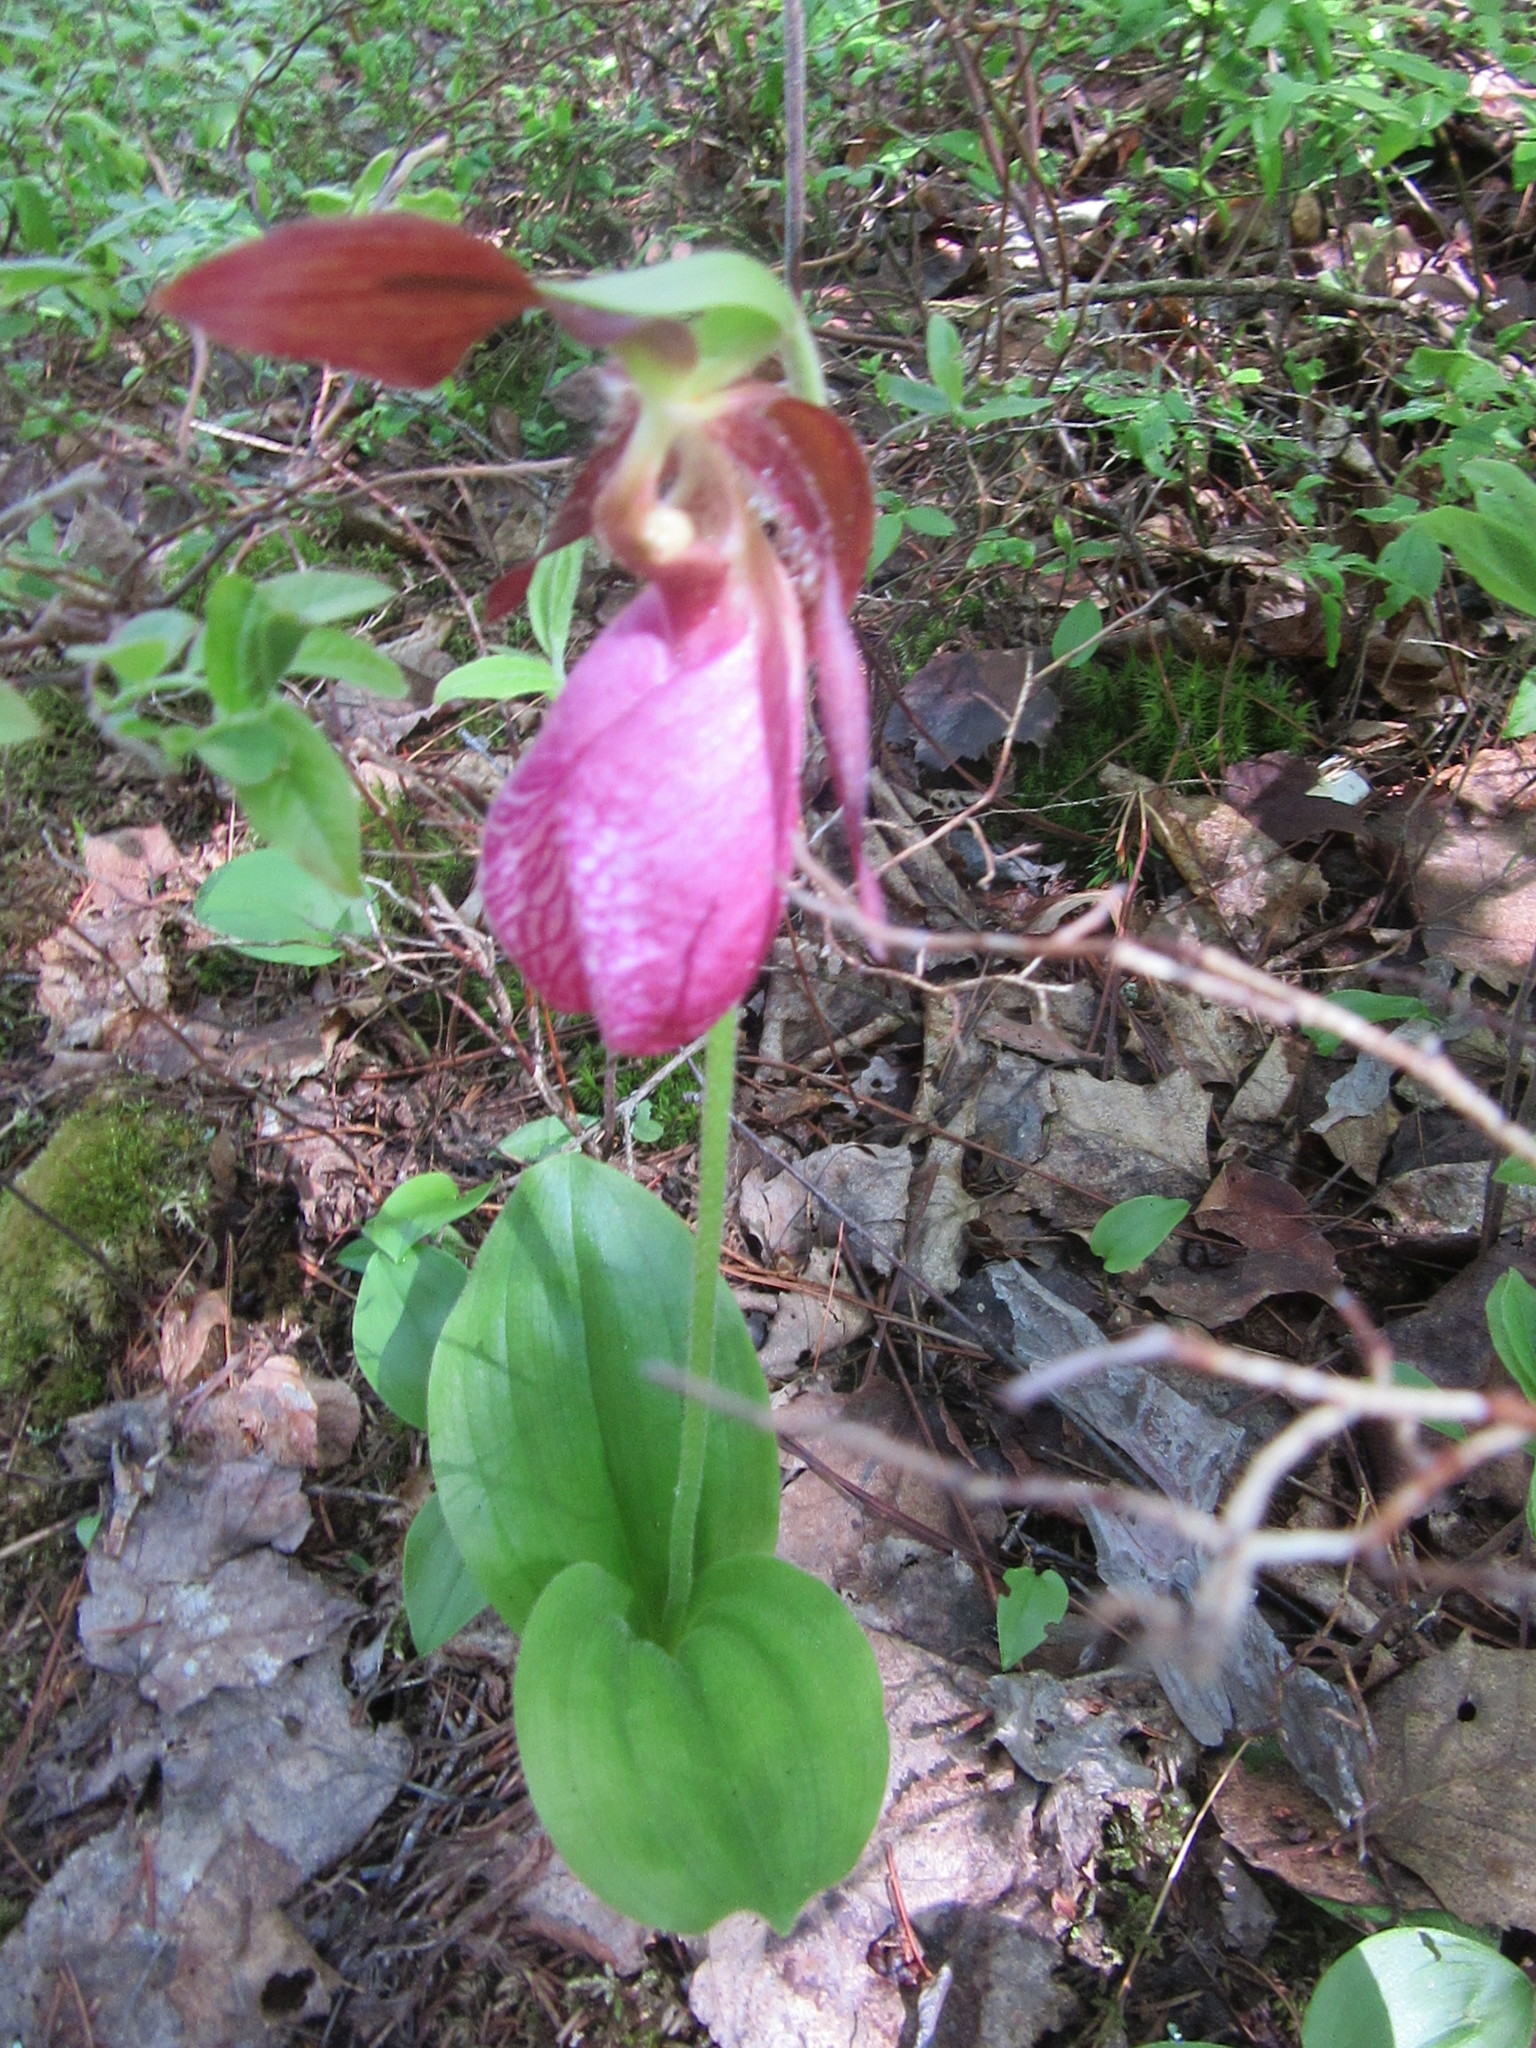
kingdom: Plantae
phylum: Tracheophyta
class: Liliopsida
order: Asparagales
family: Orchidaceae
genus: Cypripedium
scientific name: Cypripedium acaule
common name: Pink lady's-slipper
